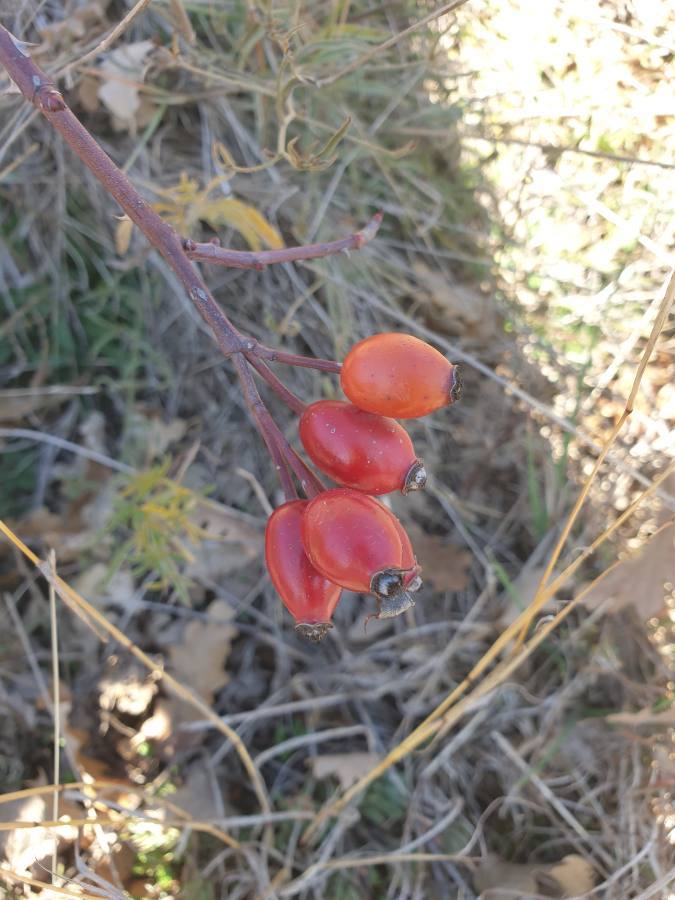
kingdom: Plantae
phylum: Tracheophyta
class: Magnoliopsida
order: Rosales
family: Rosaceae
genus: Rosa
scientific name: Rosa canina
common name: Dog rose
